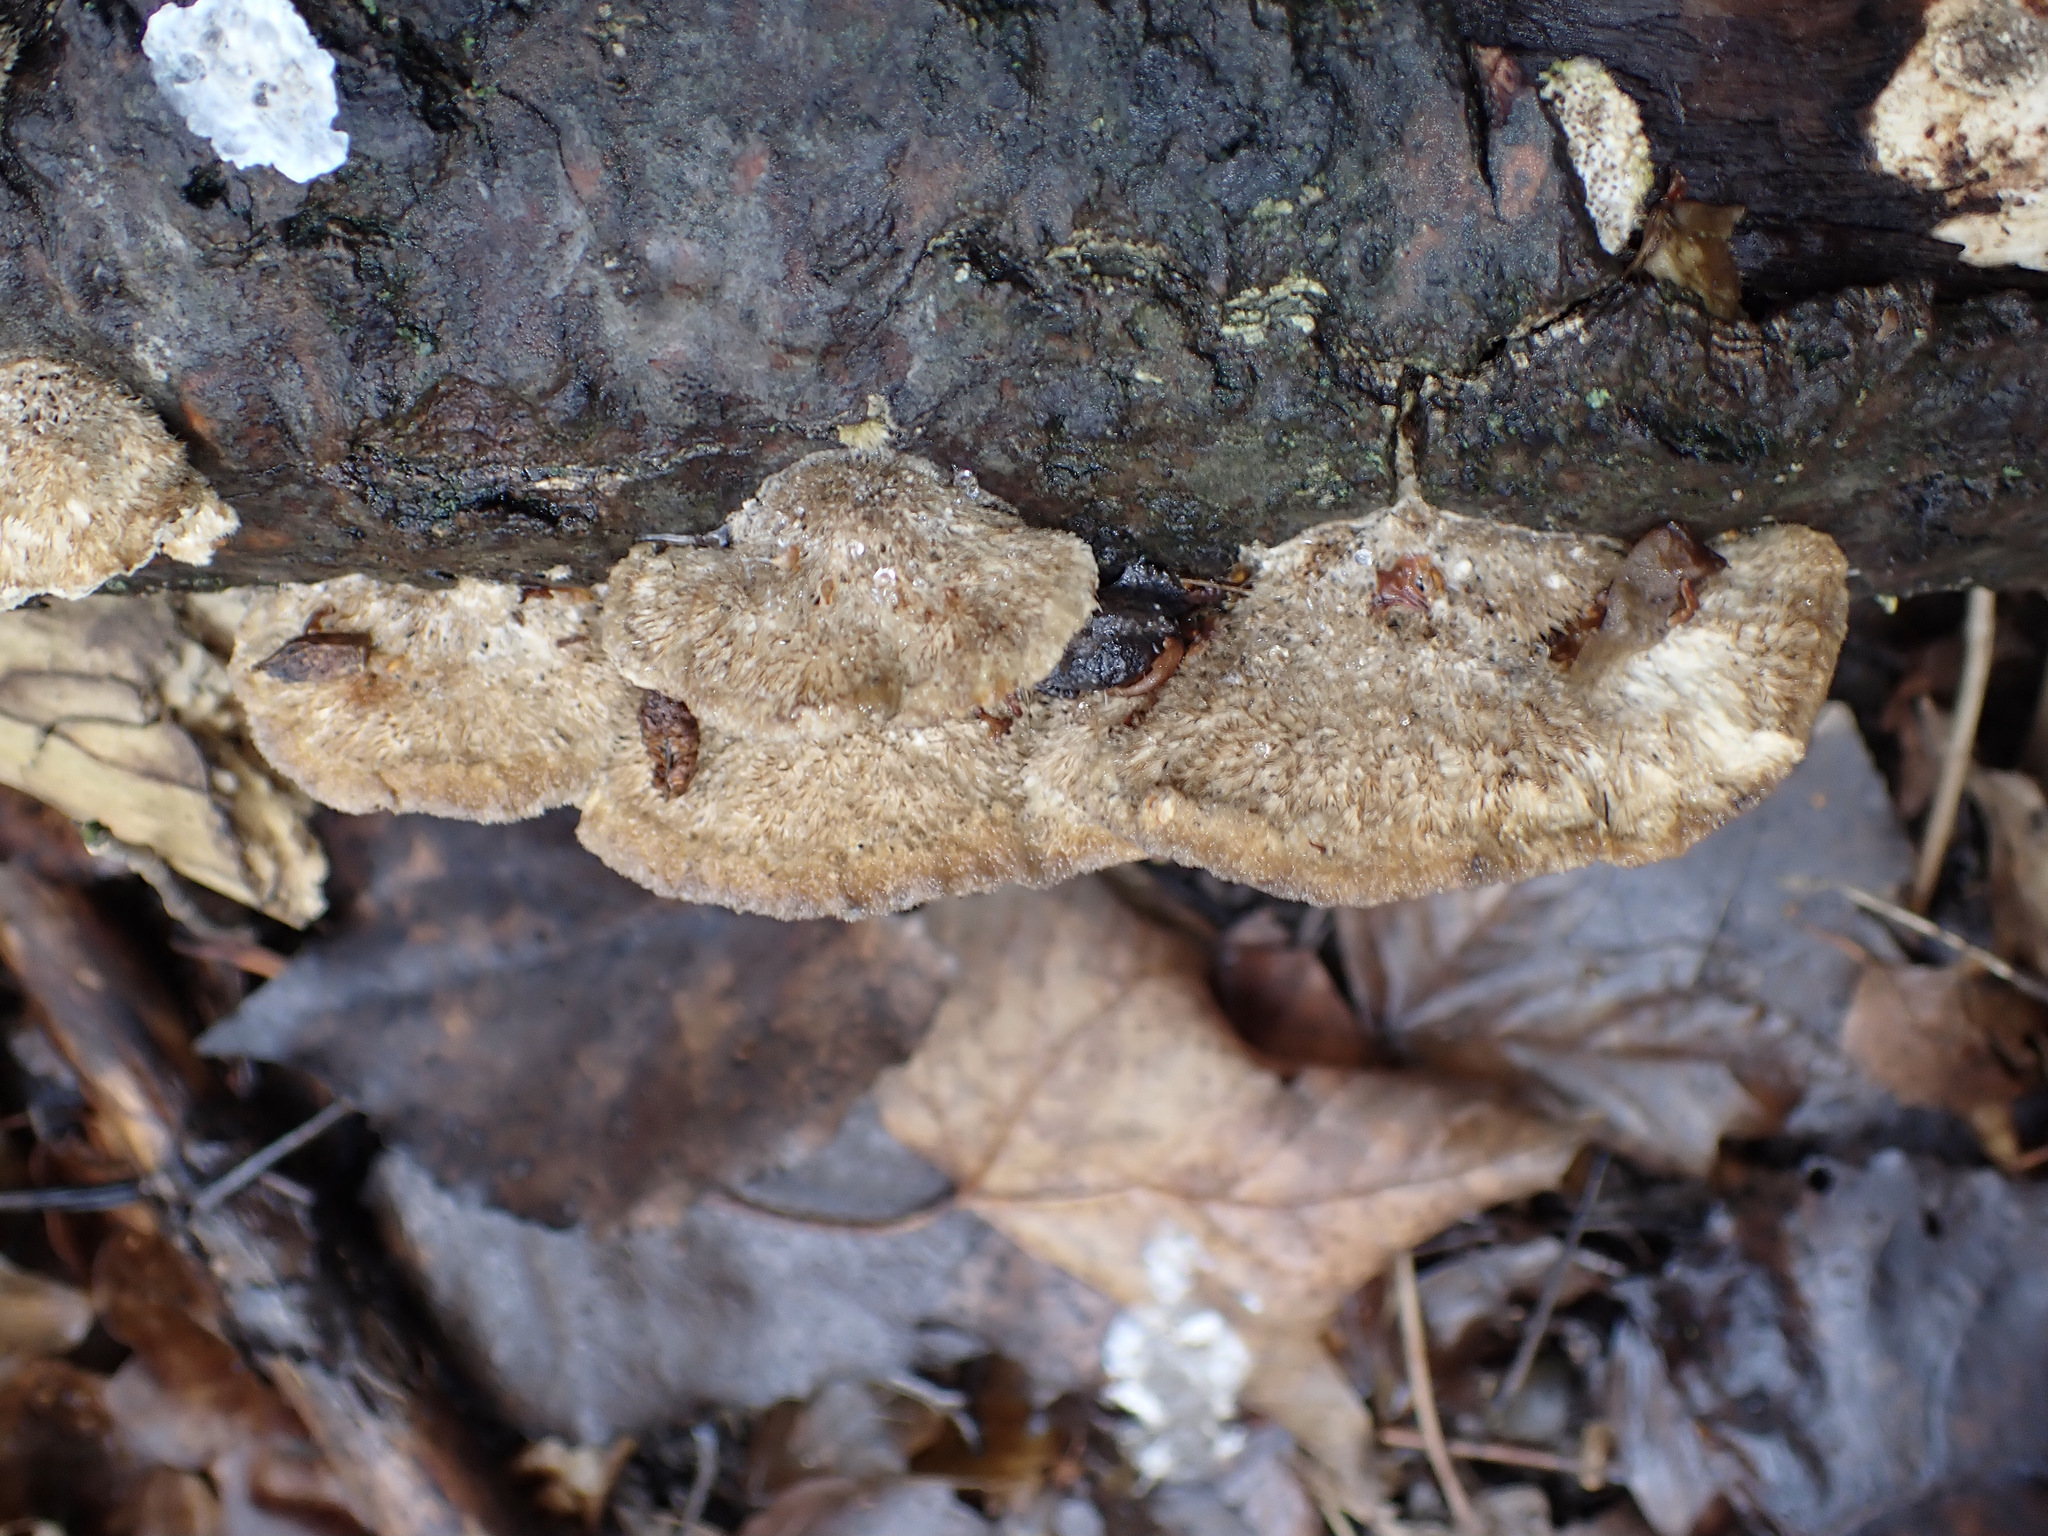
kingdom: Fungi
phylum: Basidiomycota
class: Agaricomycetes
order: Polyporales
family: Polyporaceae
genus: Coriolopsis
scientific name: Coriolopsis gallica
